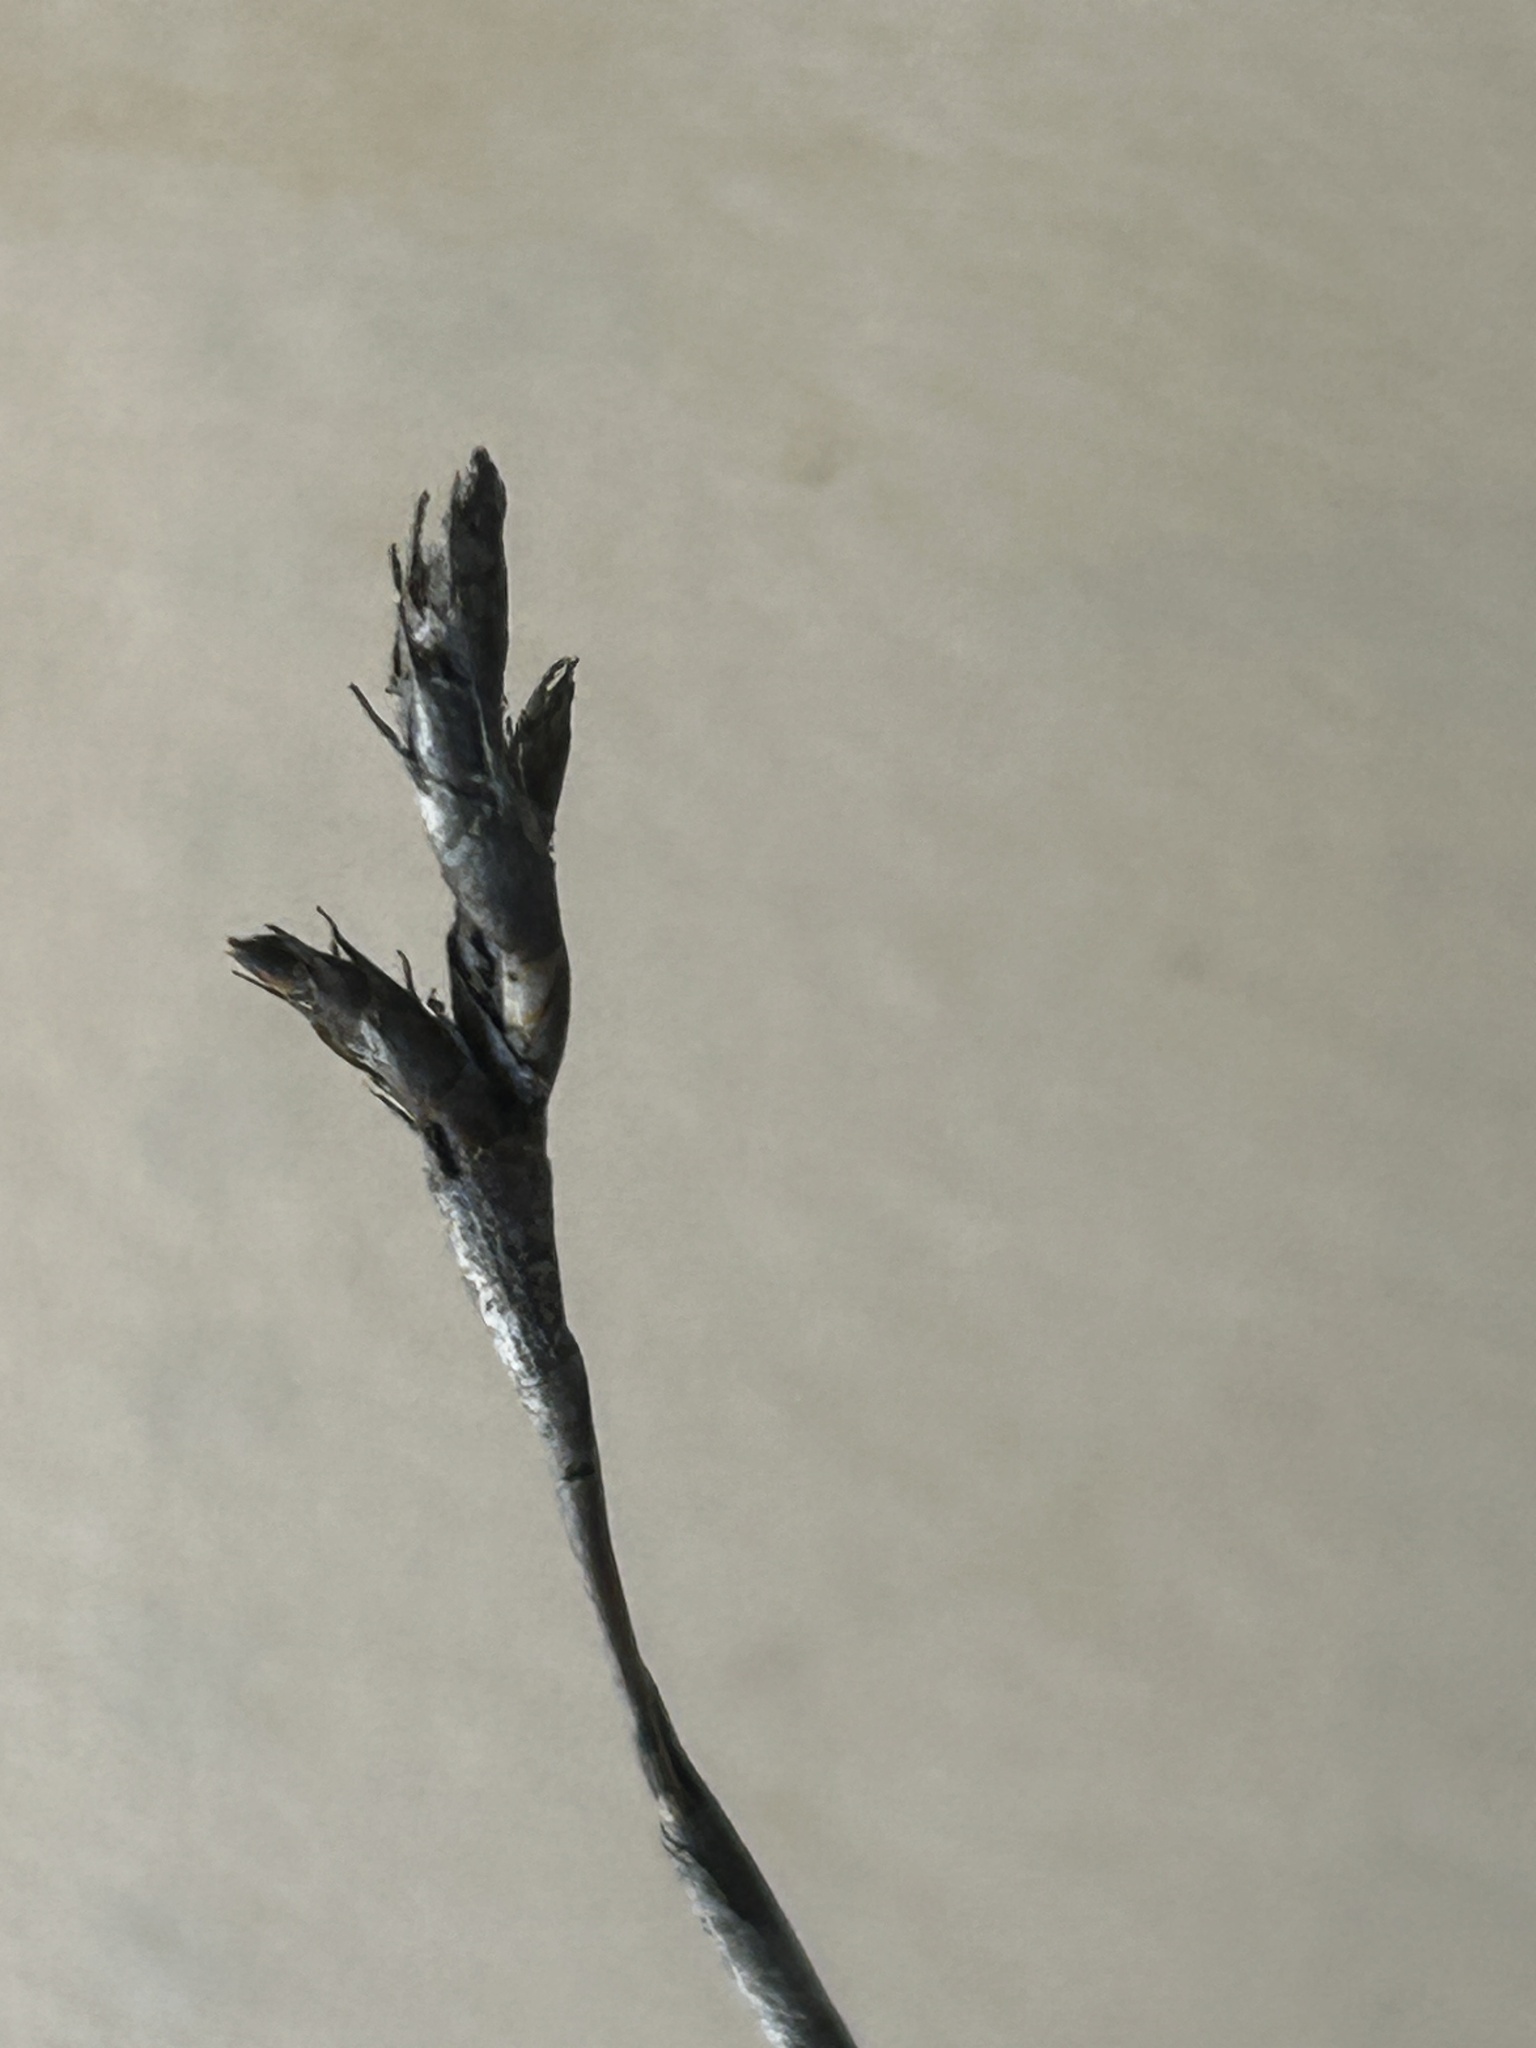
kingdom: Plantae
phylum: Tracheophyta
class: Liliopsida
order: Poales
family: Restionaceae
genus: Restio
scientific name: Restio eleocharis
